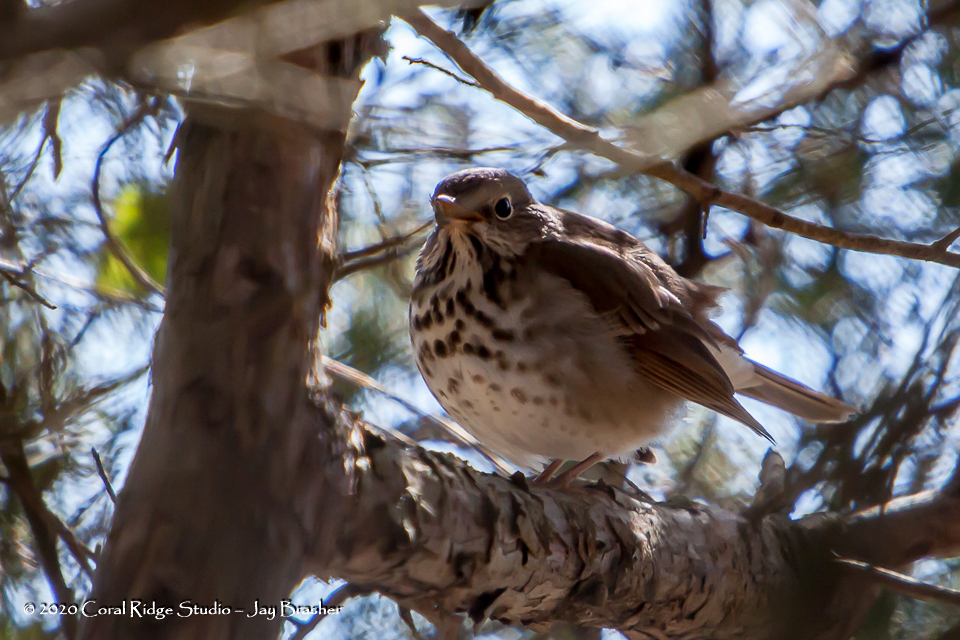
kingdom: Animalia
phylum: Chordata
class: Aves
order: Passeriformes
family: Turdidae
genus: Catharus
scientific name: Catharus guttatus
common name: Hermit thrush
